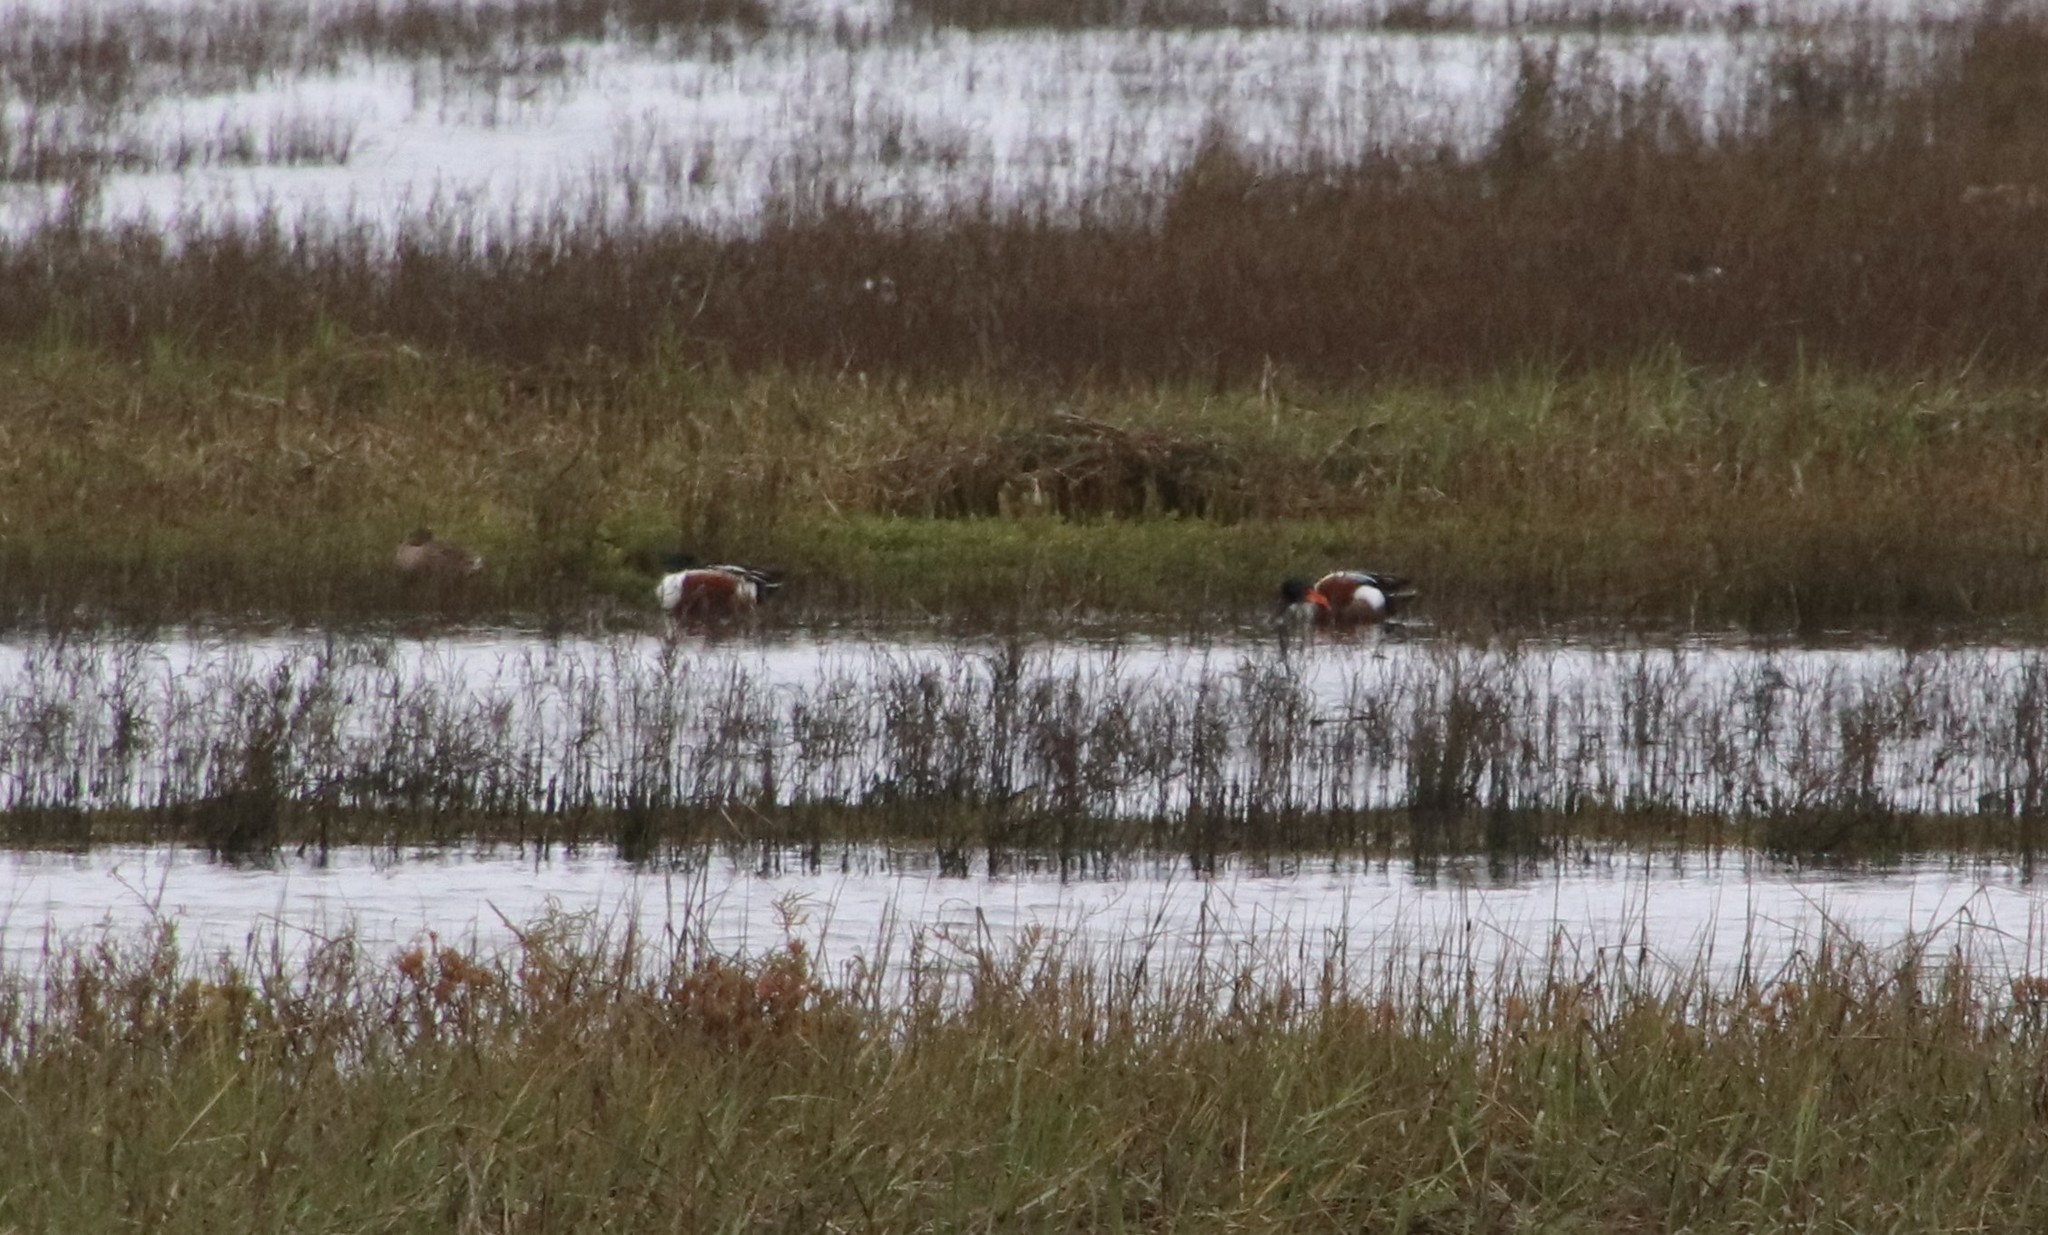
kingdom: Animalia
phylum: Chordata
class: Aves
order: Anseriformes
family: Anatidae
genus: Spatula
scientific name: Spatula clypeata
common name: Northern shoveler
